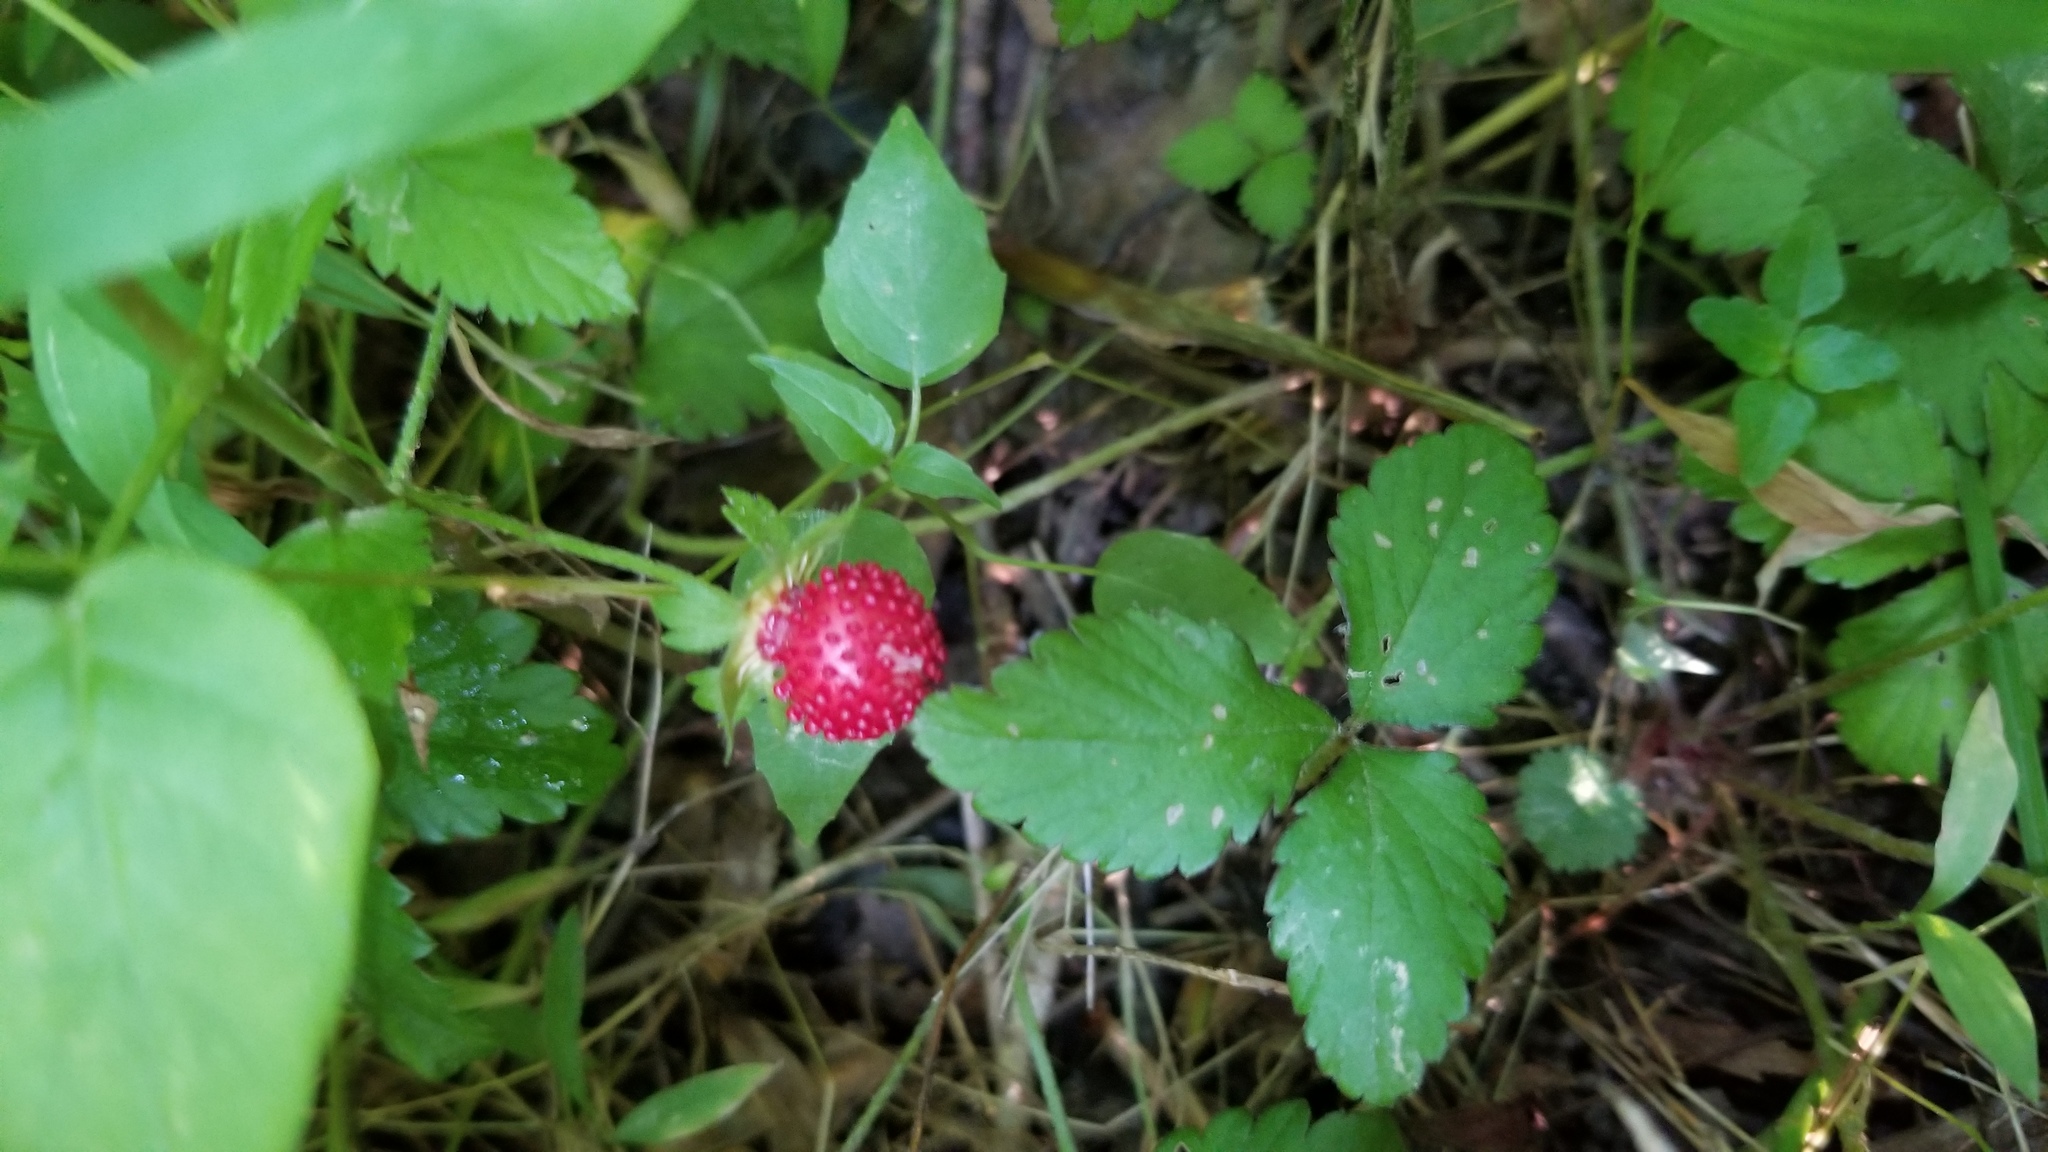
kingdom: Plantae
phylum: Tracheophyta
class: Magnoliopsida
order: Rosales
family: Rosaceae
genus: Potentilla
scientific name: Potentilla indica
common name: Yellow-flowered strawberry
